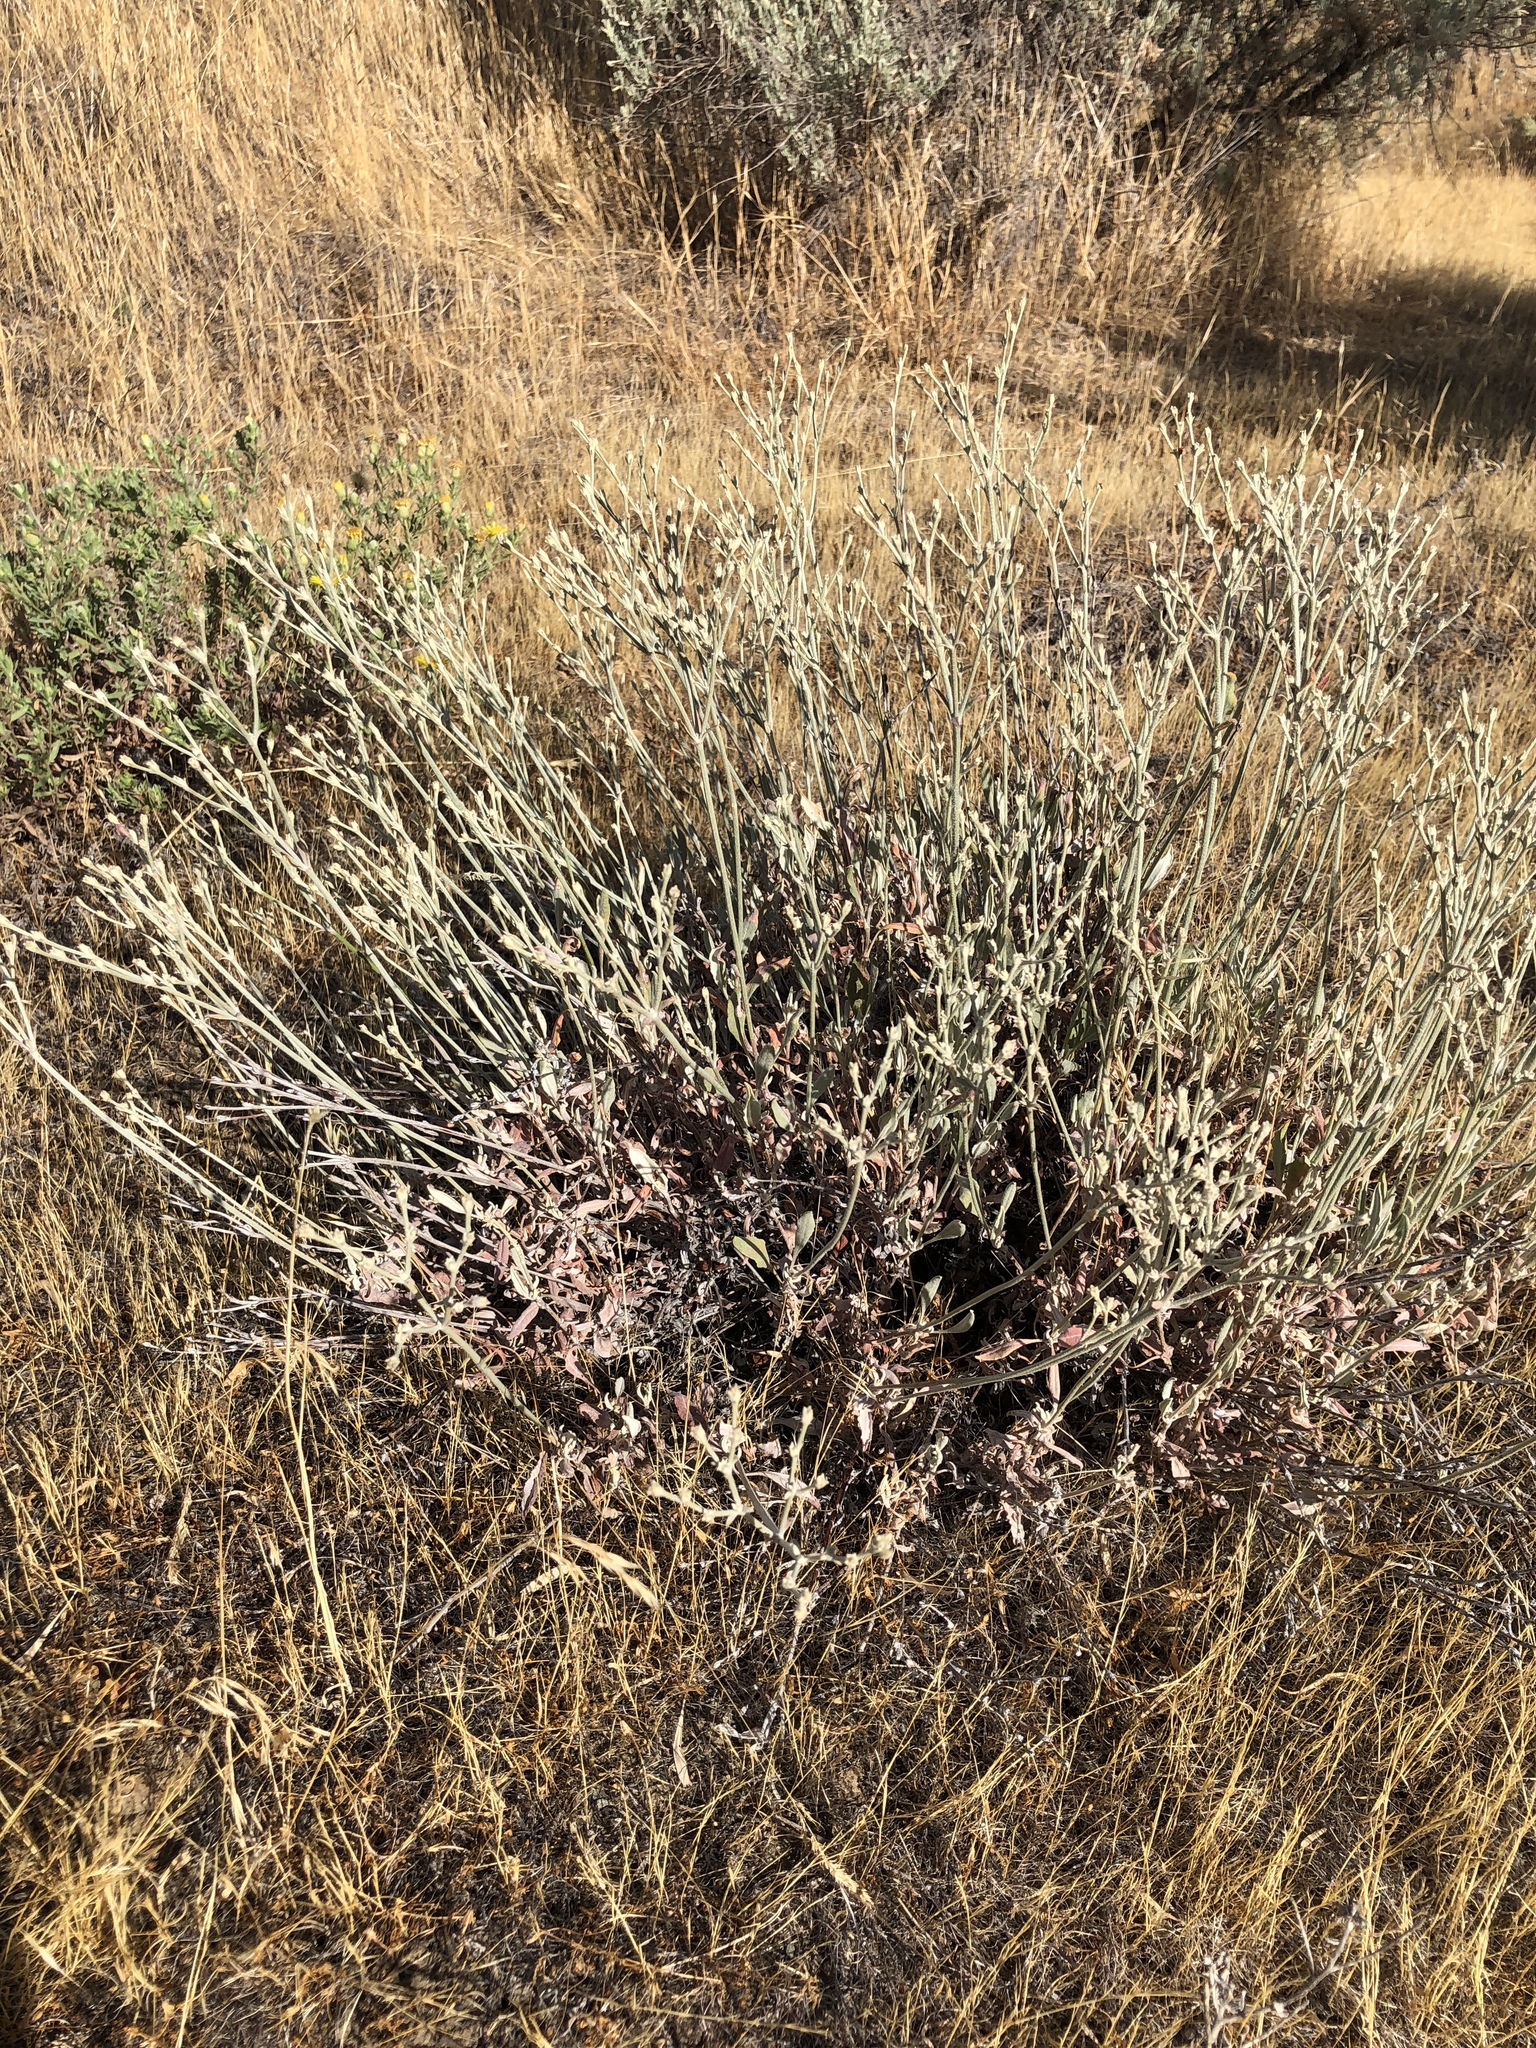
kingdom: Plantae
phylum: Tracheophyta
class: Magnoliopsida
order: Caryophyllales
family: Polygonaceae
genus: Eriogonum
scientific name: Eriogonum niveum
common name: Snow wild buckwheat
